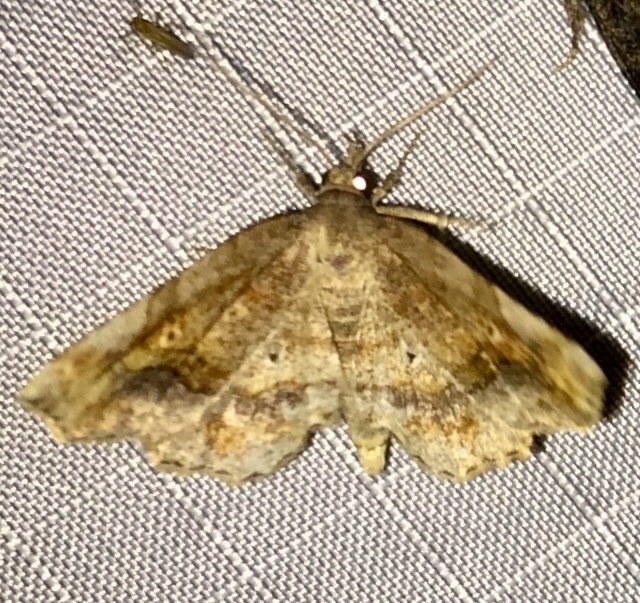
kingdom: Animalia
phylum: Arthropoda
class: Insecta
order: Lepidoptera
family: Erebidae
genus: Pangrapta
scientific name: Pangrapta decoralis
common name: Decorated owlet
